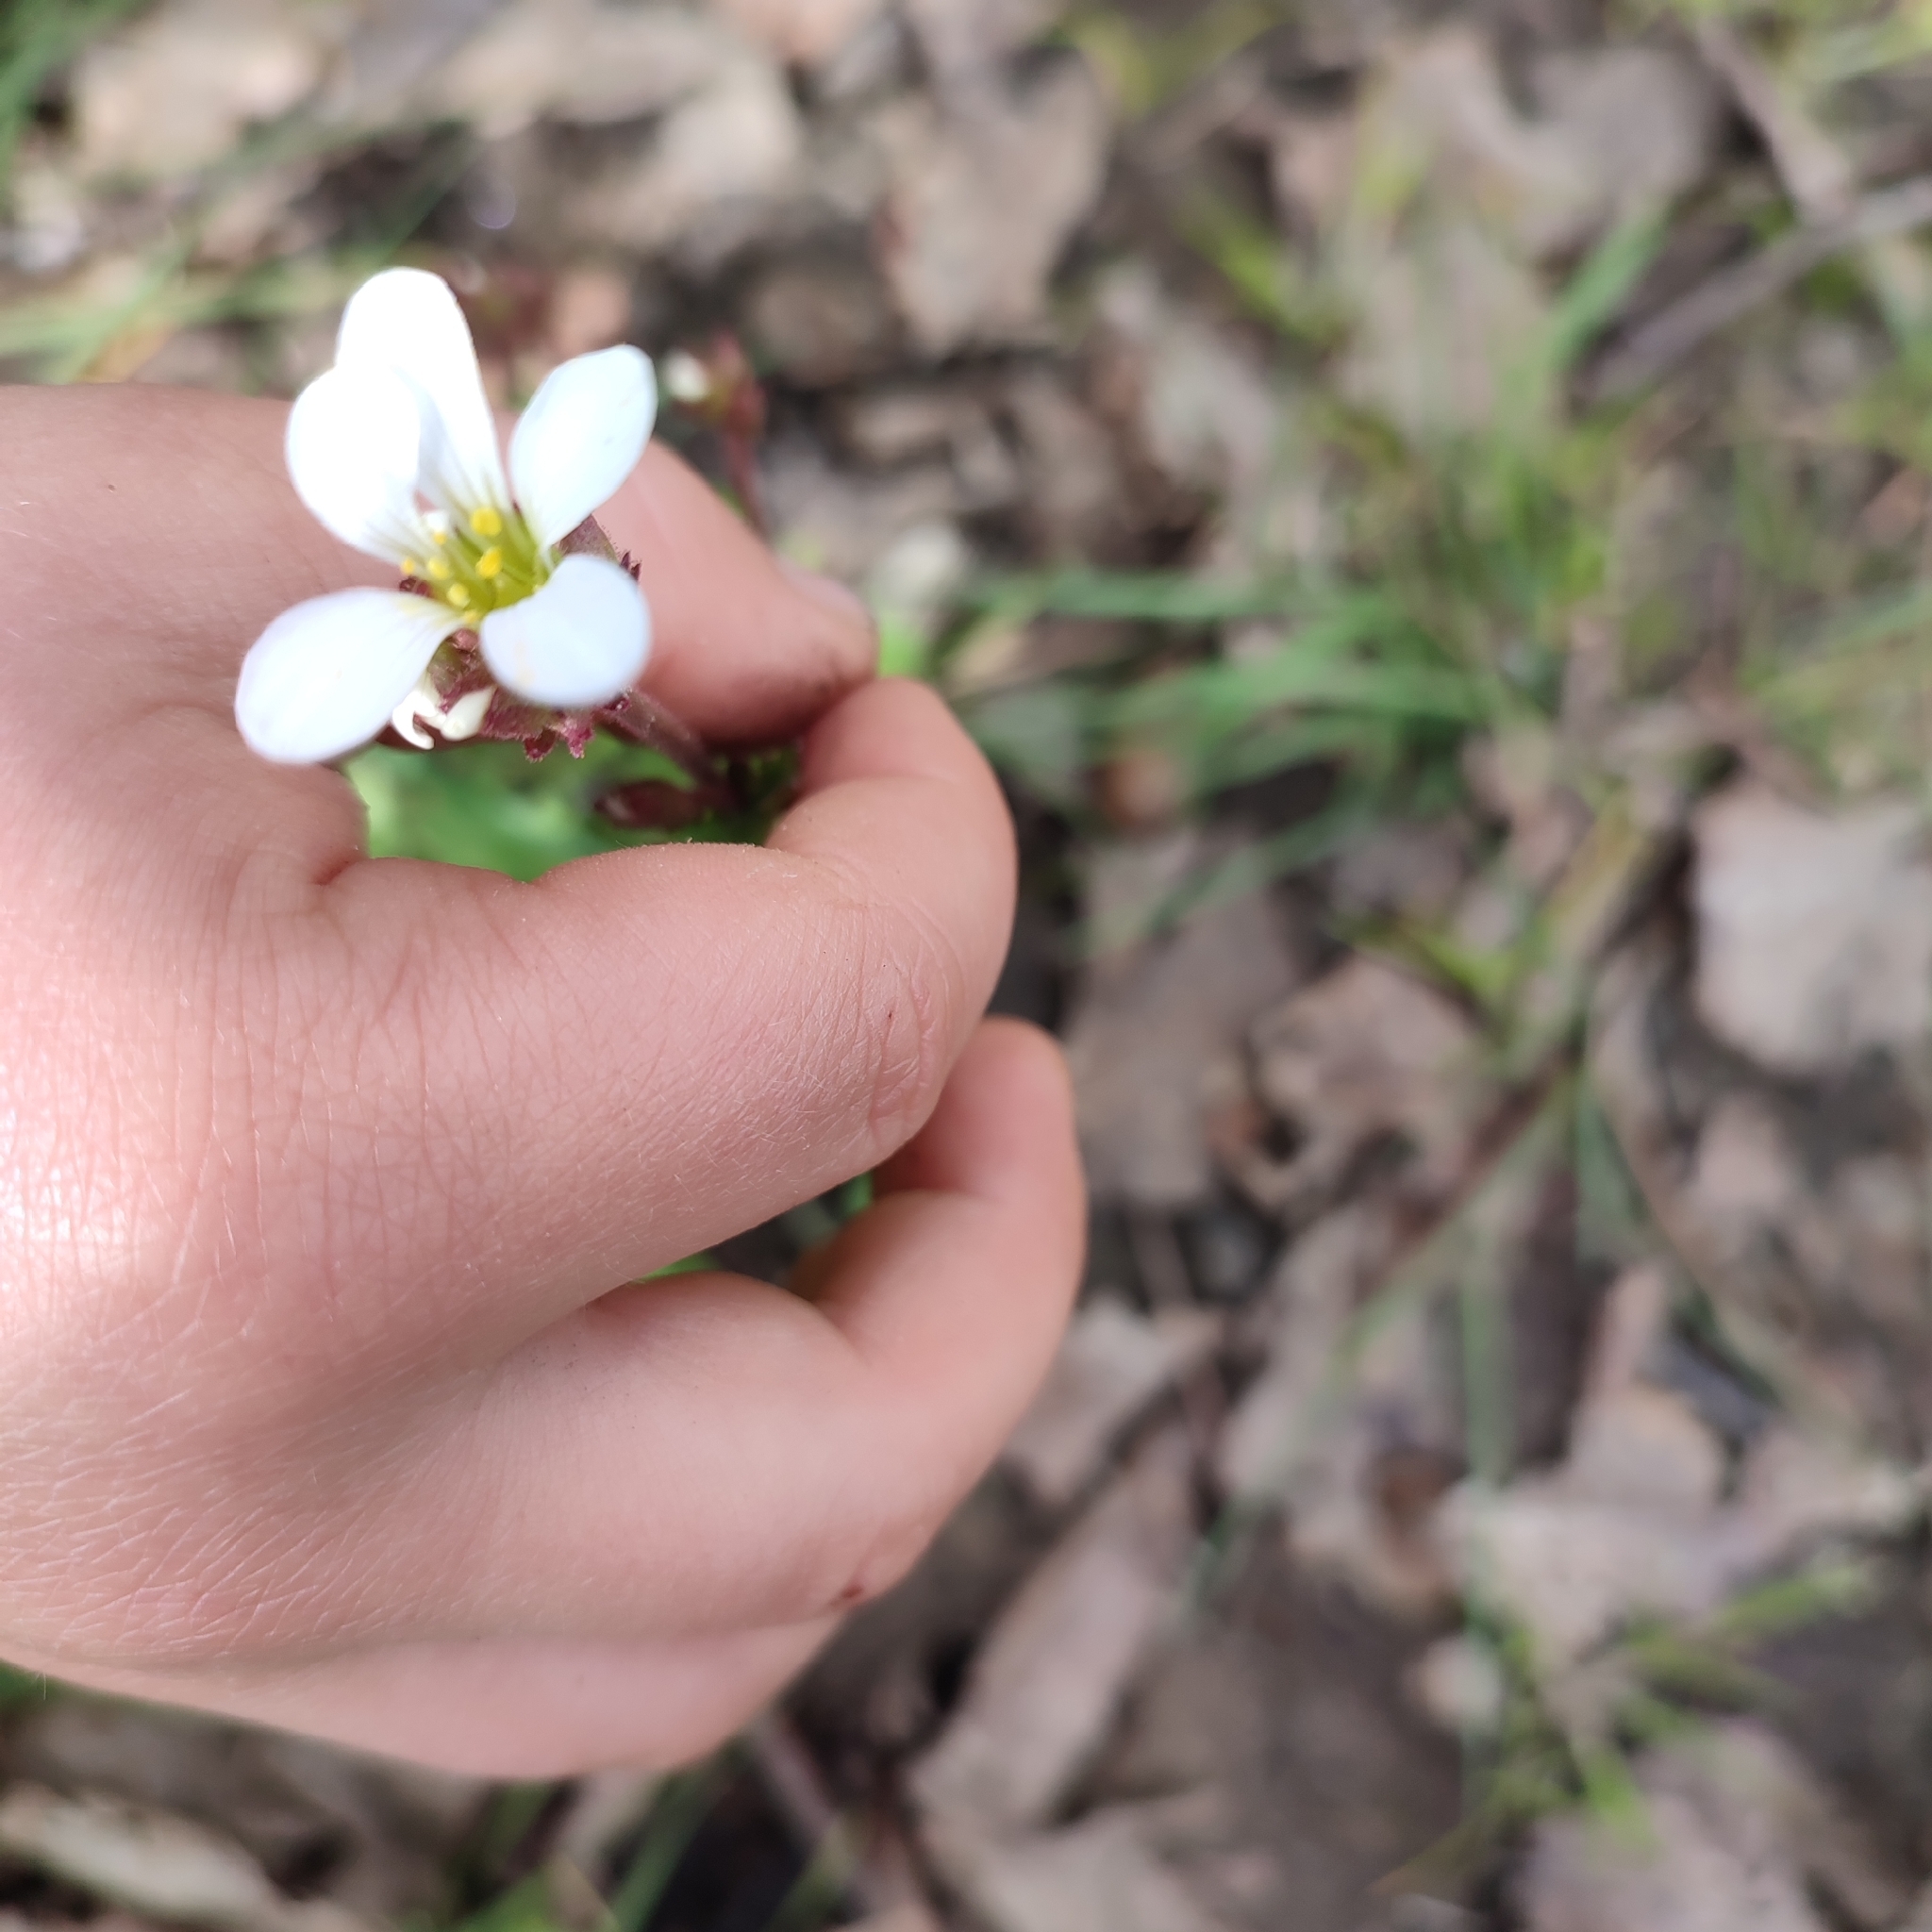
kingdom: Plantae
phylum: Tracheophyta
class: Magnoliopsida
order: Saxifragales
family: Saxifragaceae
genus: Saxifraga
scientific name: Saxifraga granulata
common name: Meadow saxifrage
